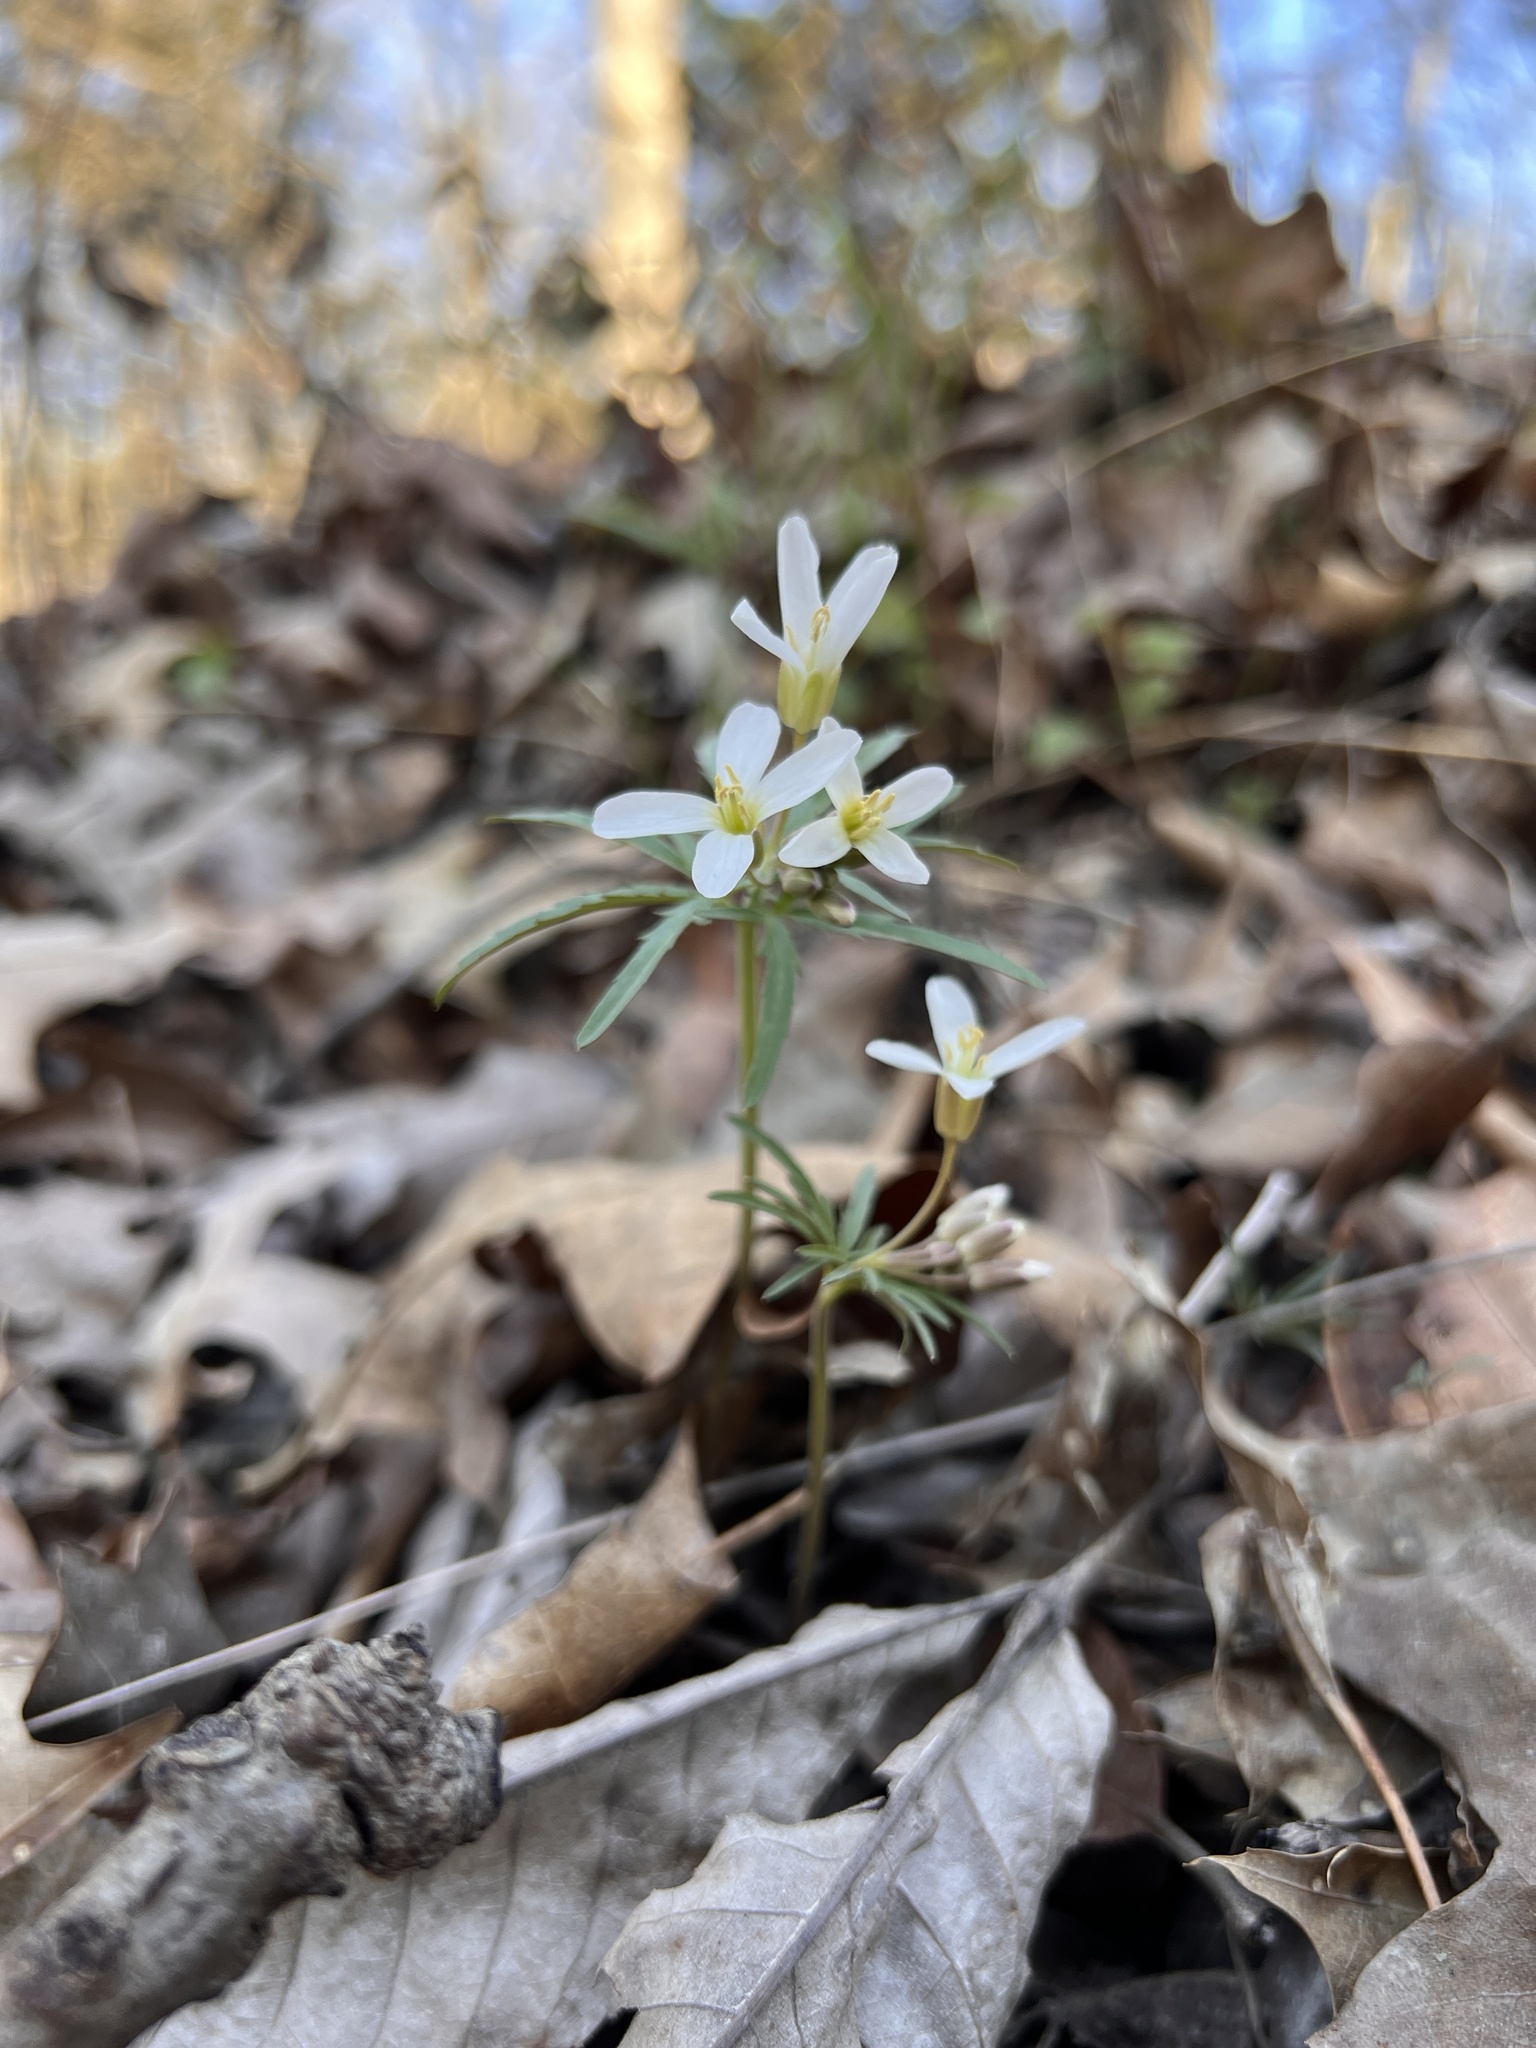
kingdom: Plantae
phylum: Tracheophyta
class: Magnoliopsida
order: Brassicales
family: Brassicaceae
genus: Cardamine
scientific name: Cardamine concatenata
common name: Cut-leaf toothcup
